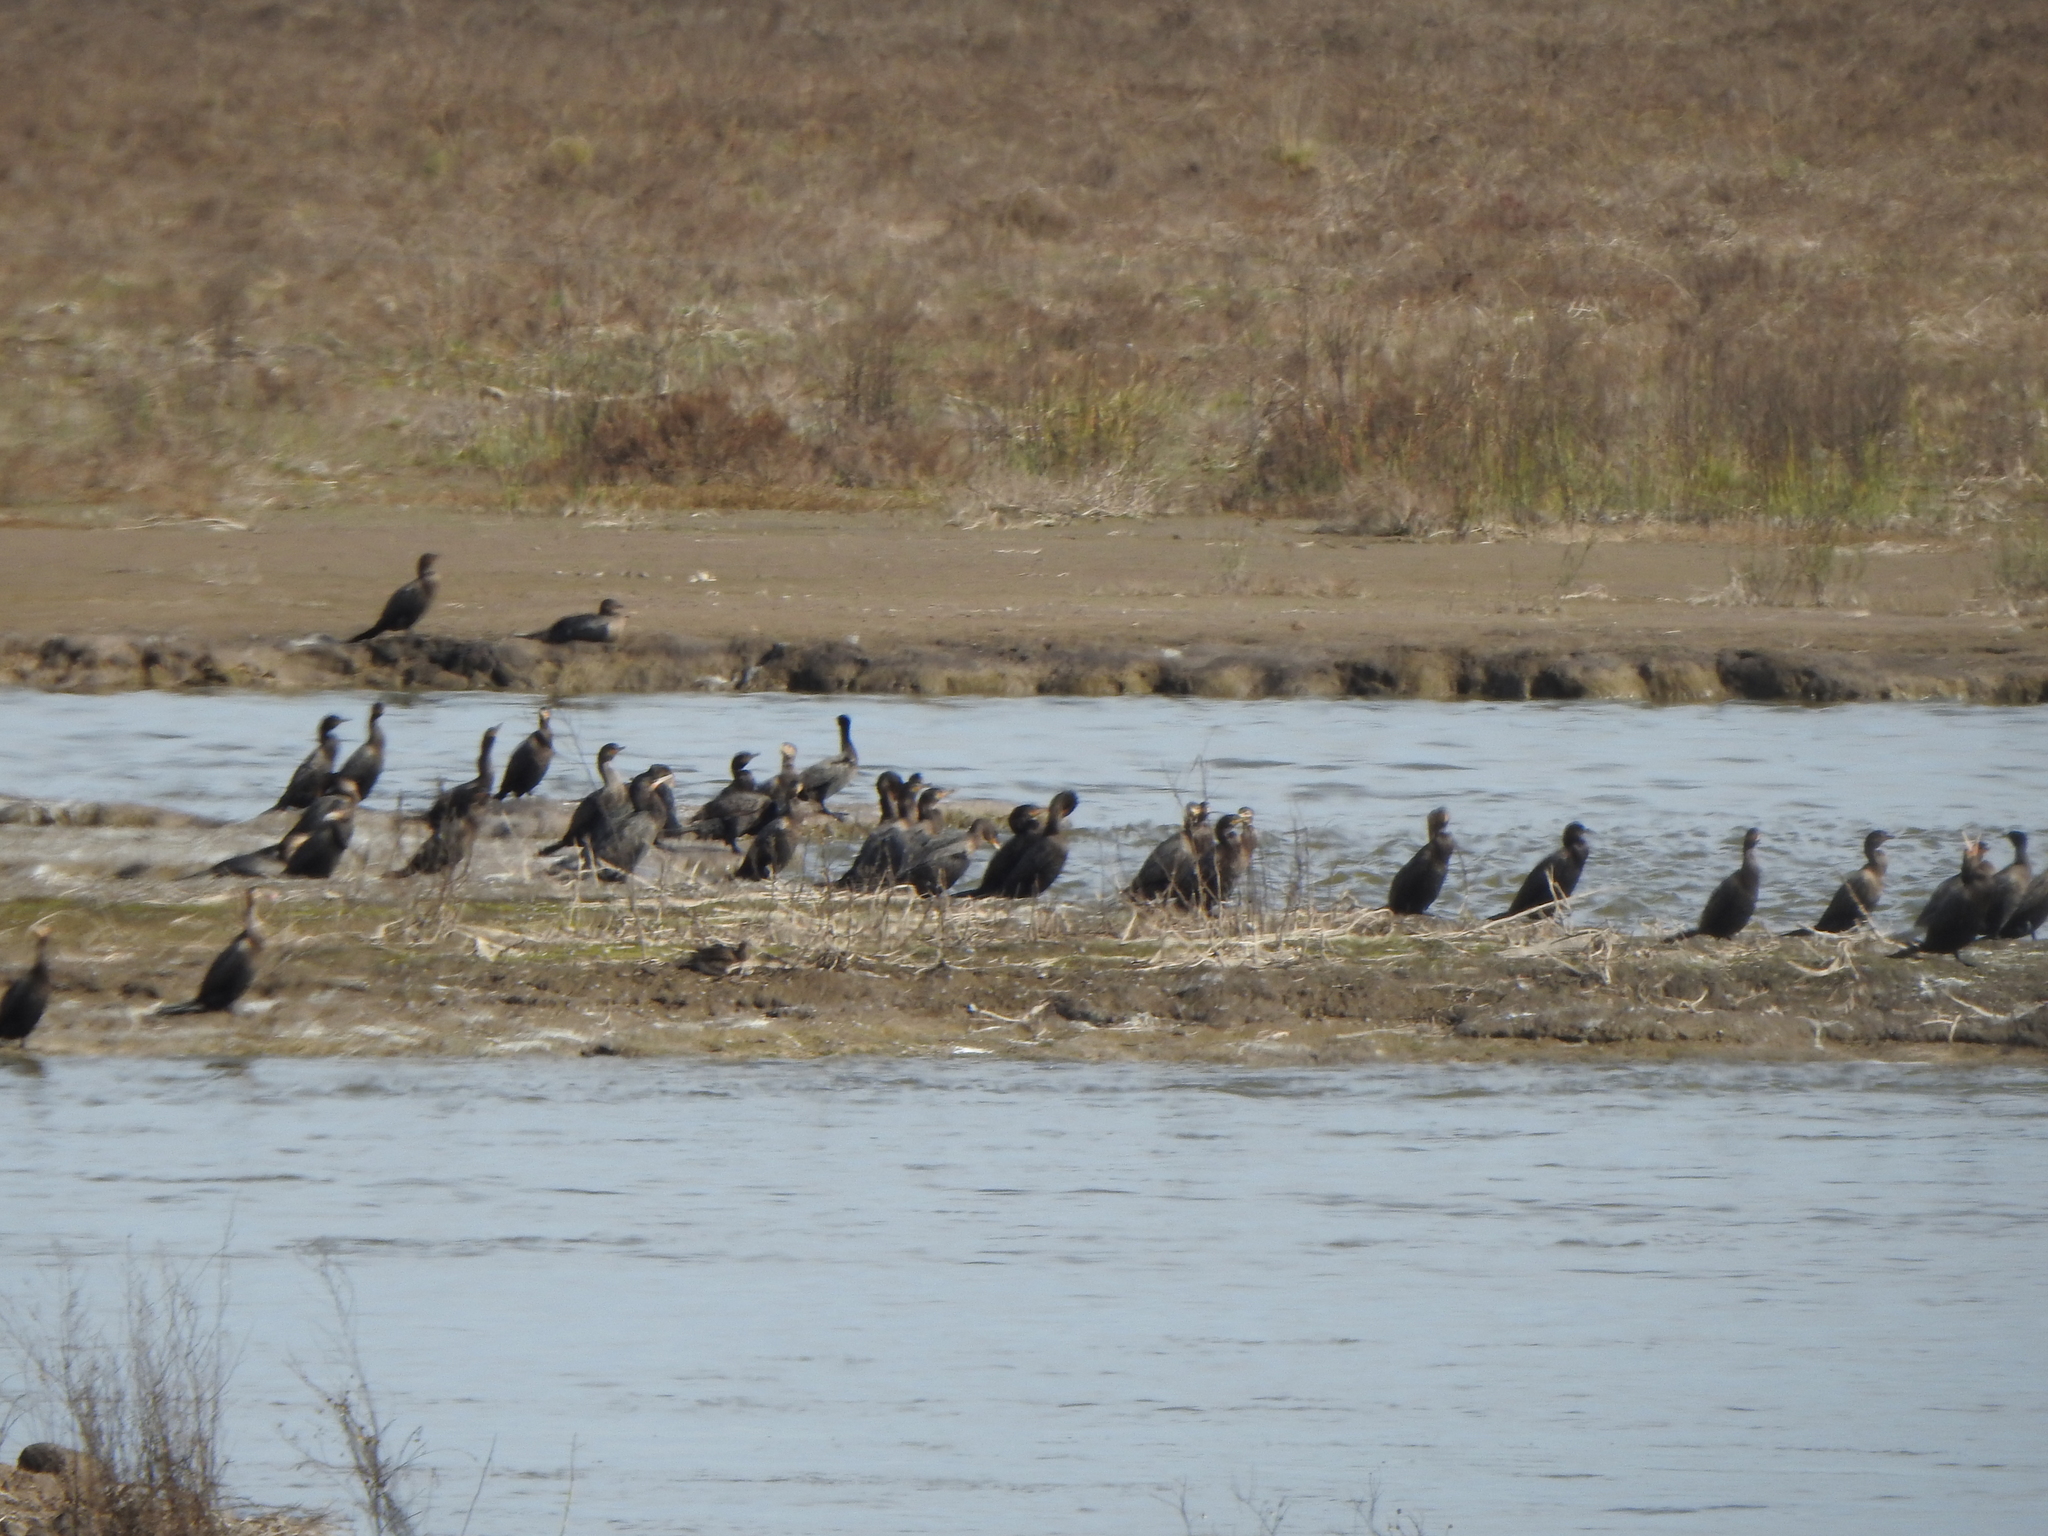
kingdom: Animalia
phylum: Chordata
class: Aves
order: Suliformes
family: Phalacrocoracidae
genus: Phalacrocorax
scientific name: Phalacrocorax brasilianus
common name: Neotropic cormorant
